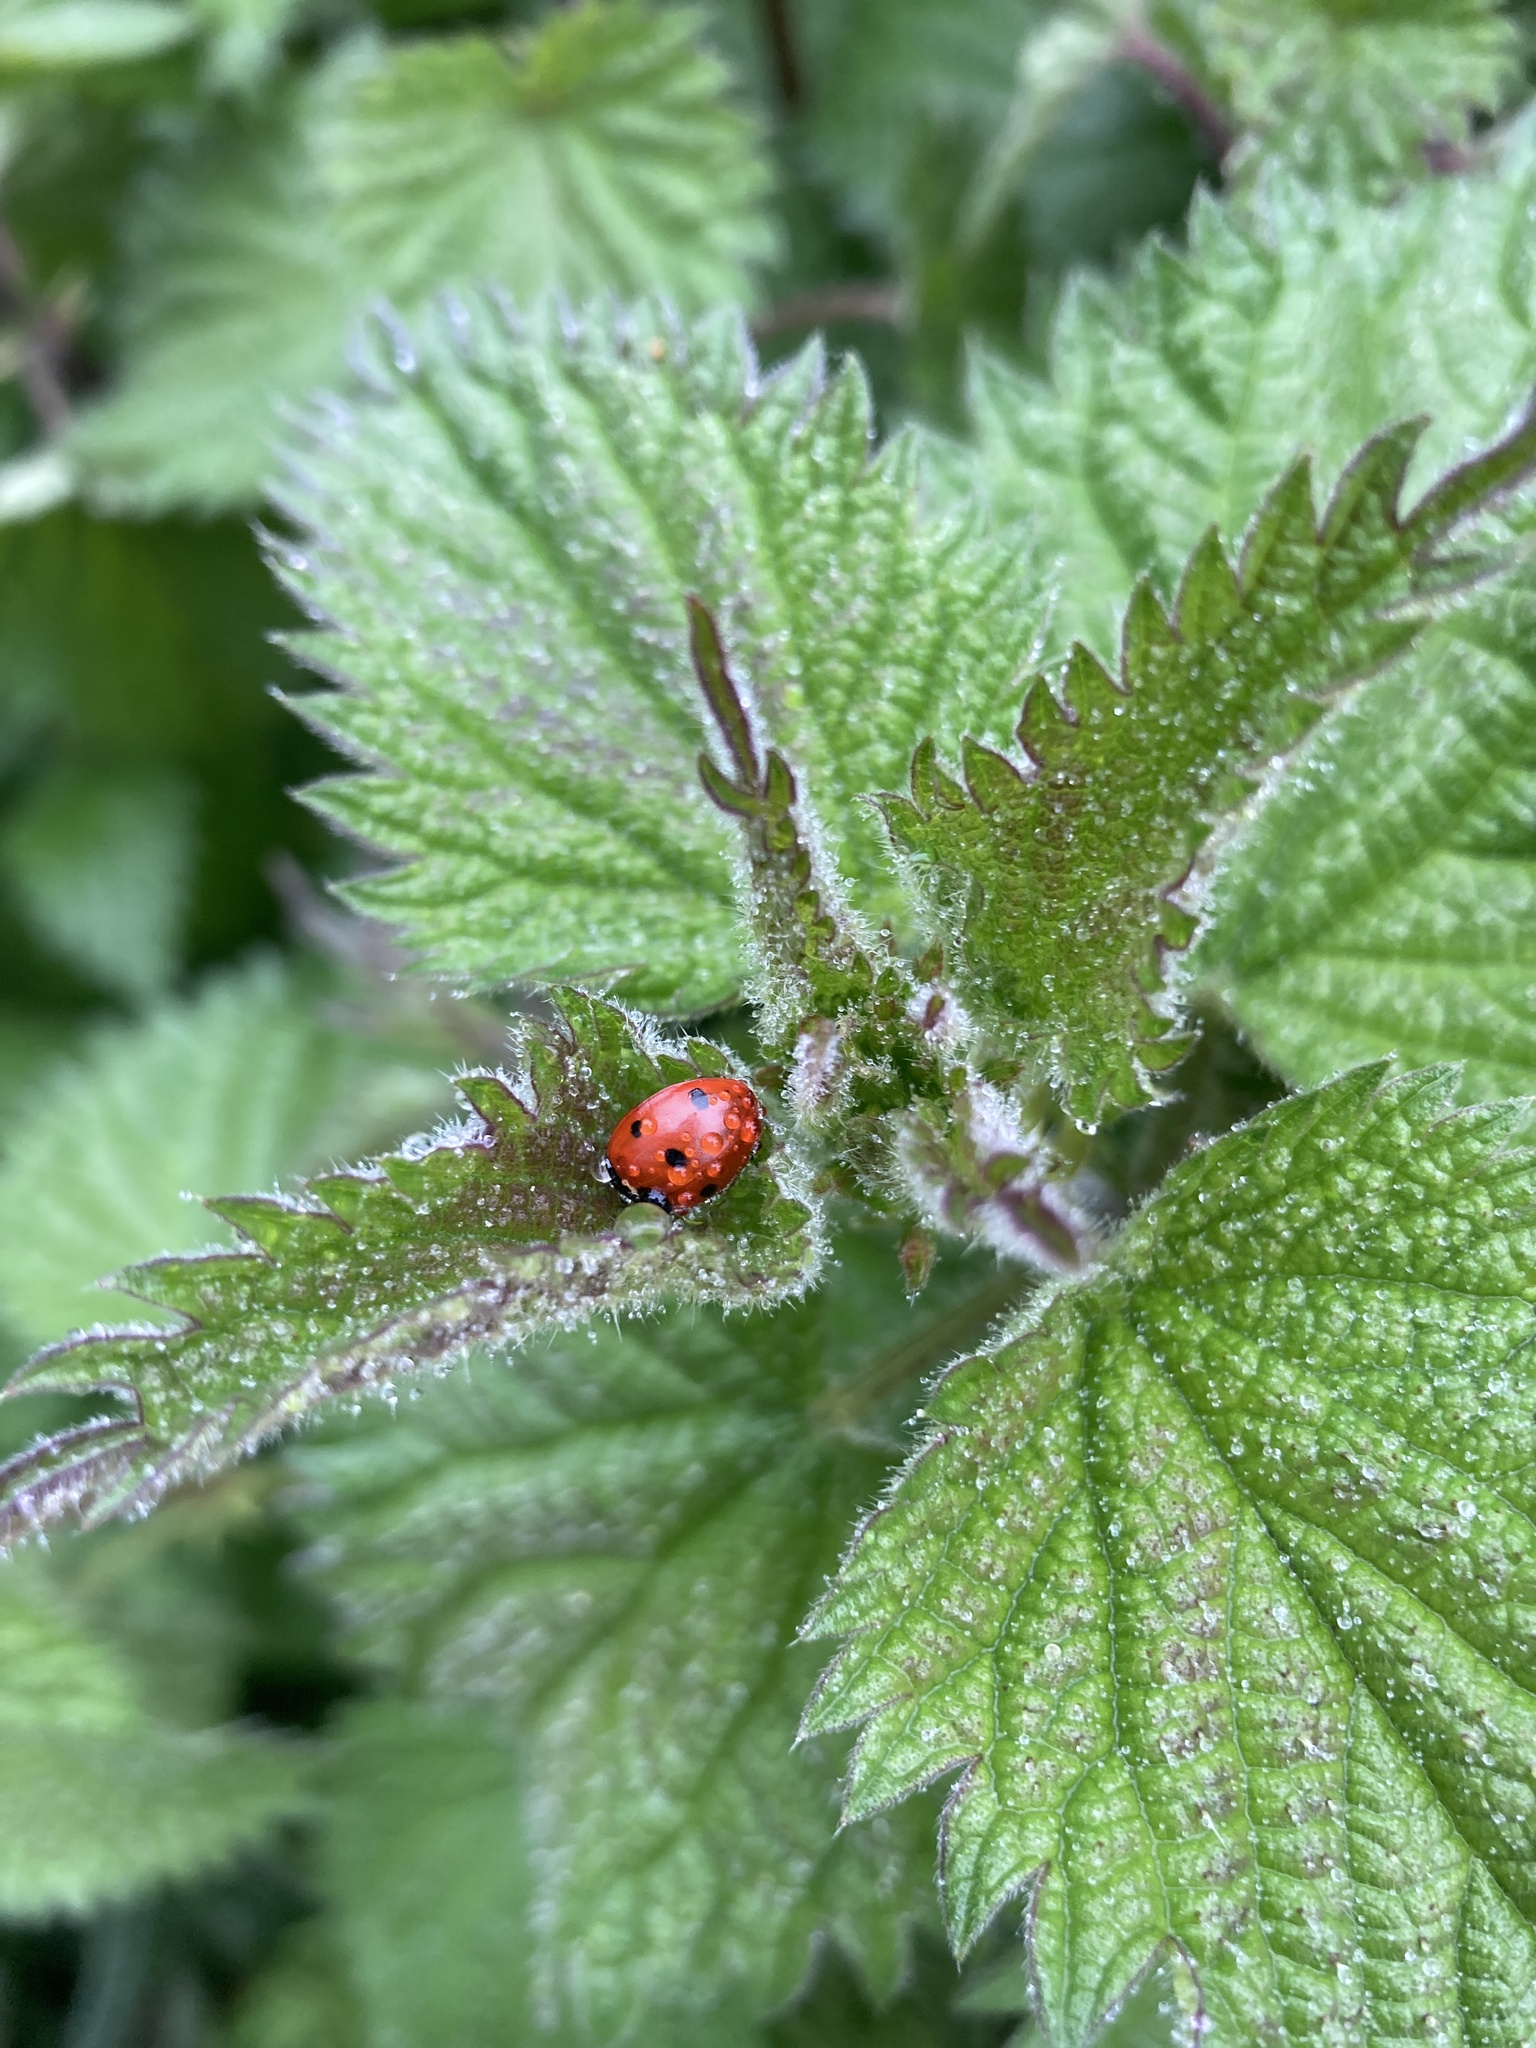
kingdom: Animalia
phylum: Arthropoda
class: Insecta
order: Coleoptera
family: Coccinellidae
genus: Coccinella
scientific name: Coccinella septempunctata
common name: Sevenspotted lady beetle
